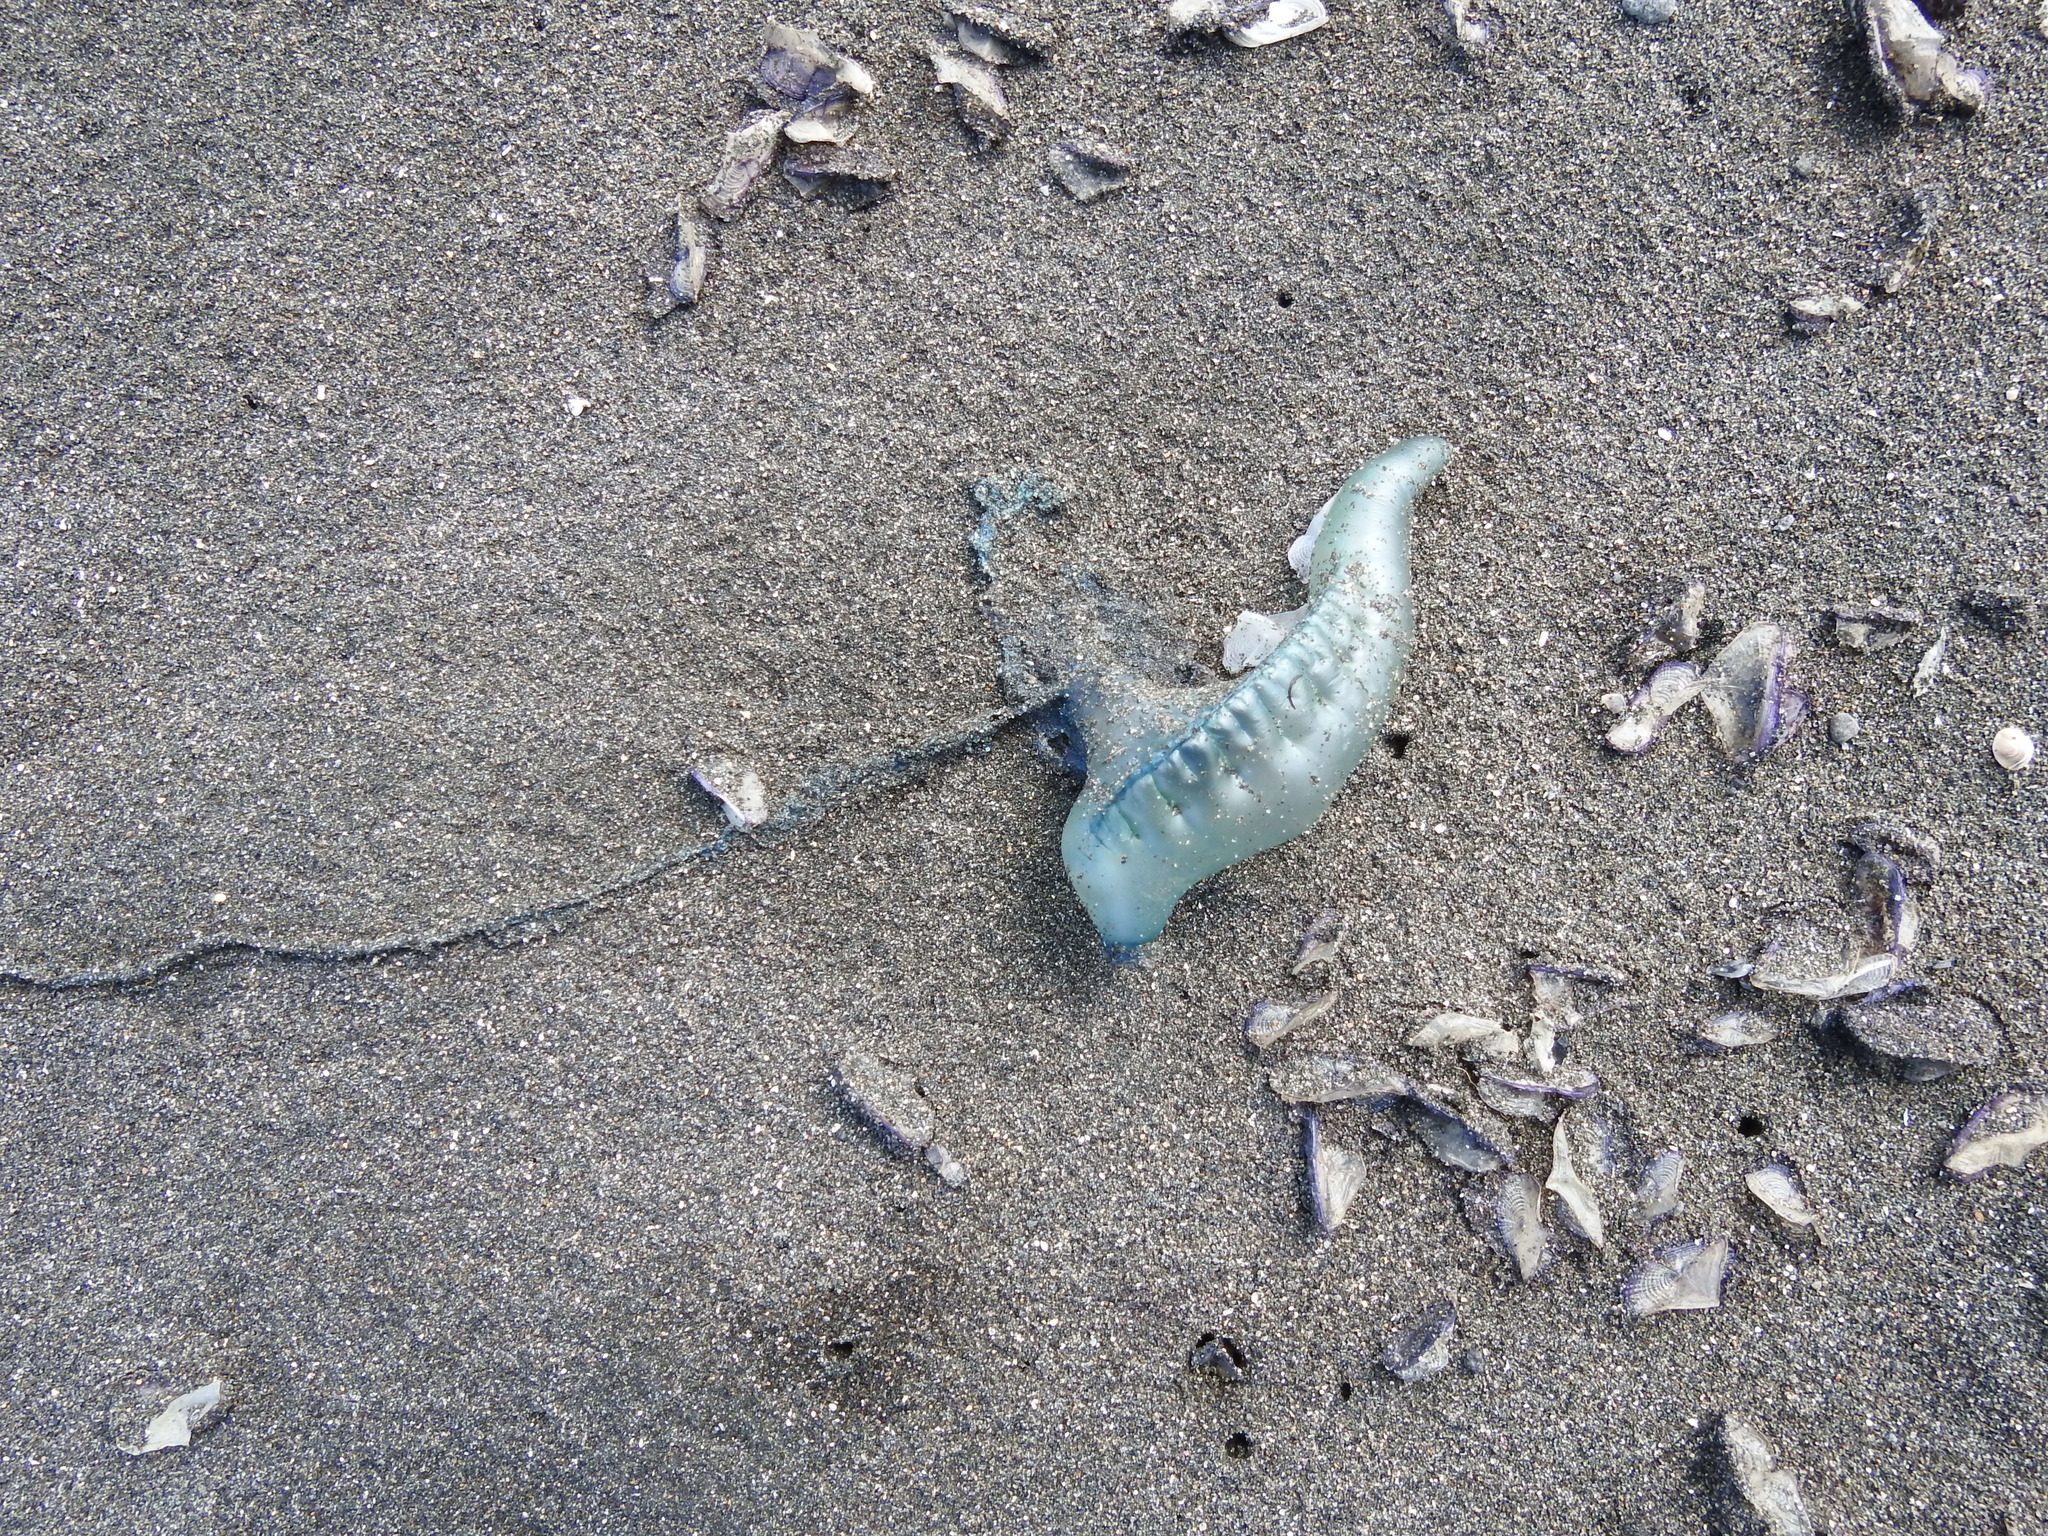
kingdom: Animalia
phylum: Cnidaria
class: Hydrozoa
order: Siphonophorae
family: Physaliidae
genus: Physalia
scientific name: Physalia physalis
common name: Portuguese man-of-war
